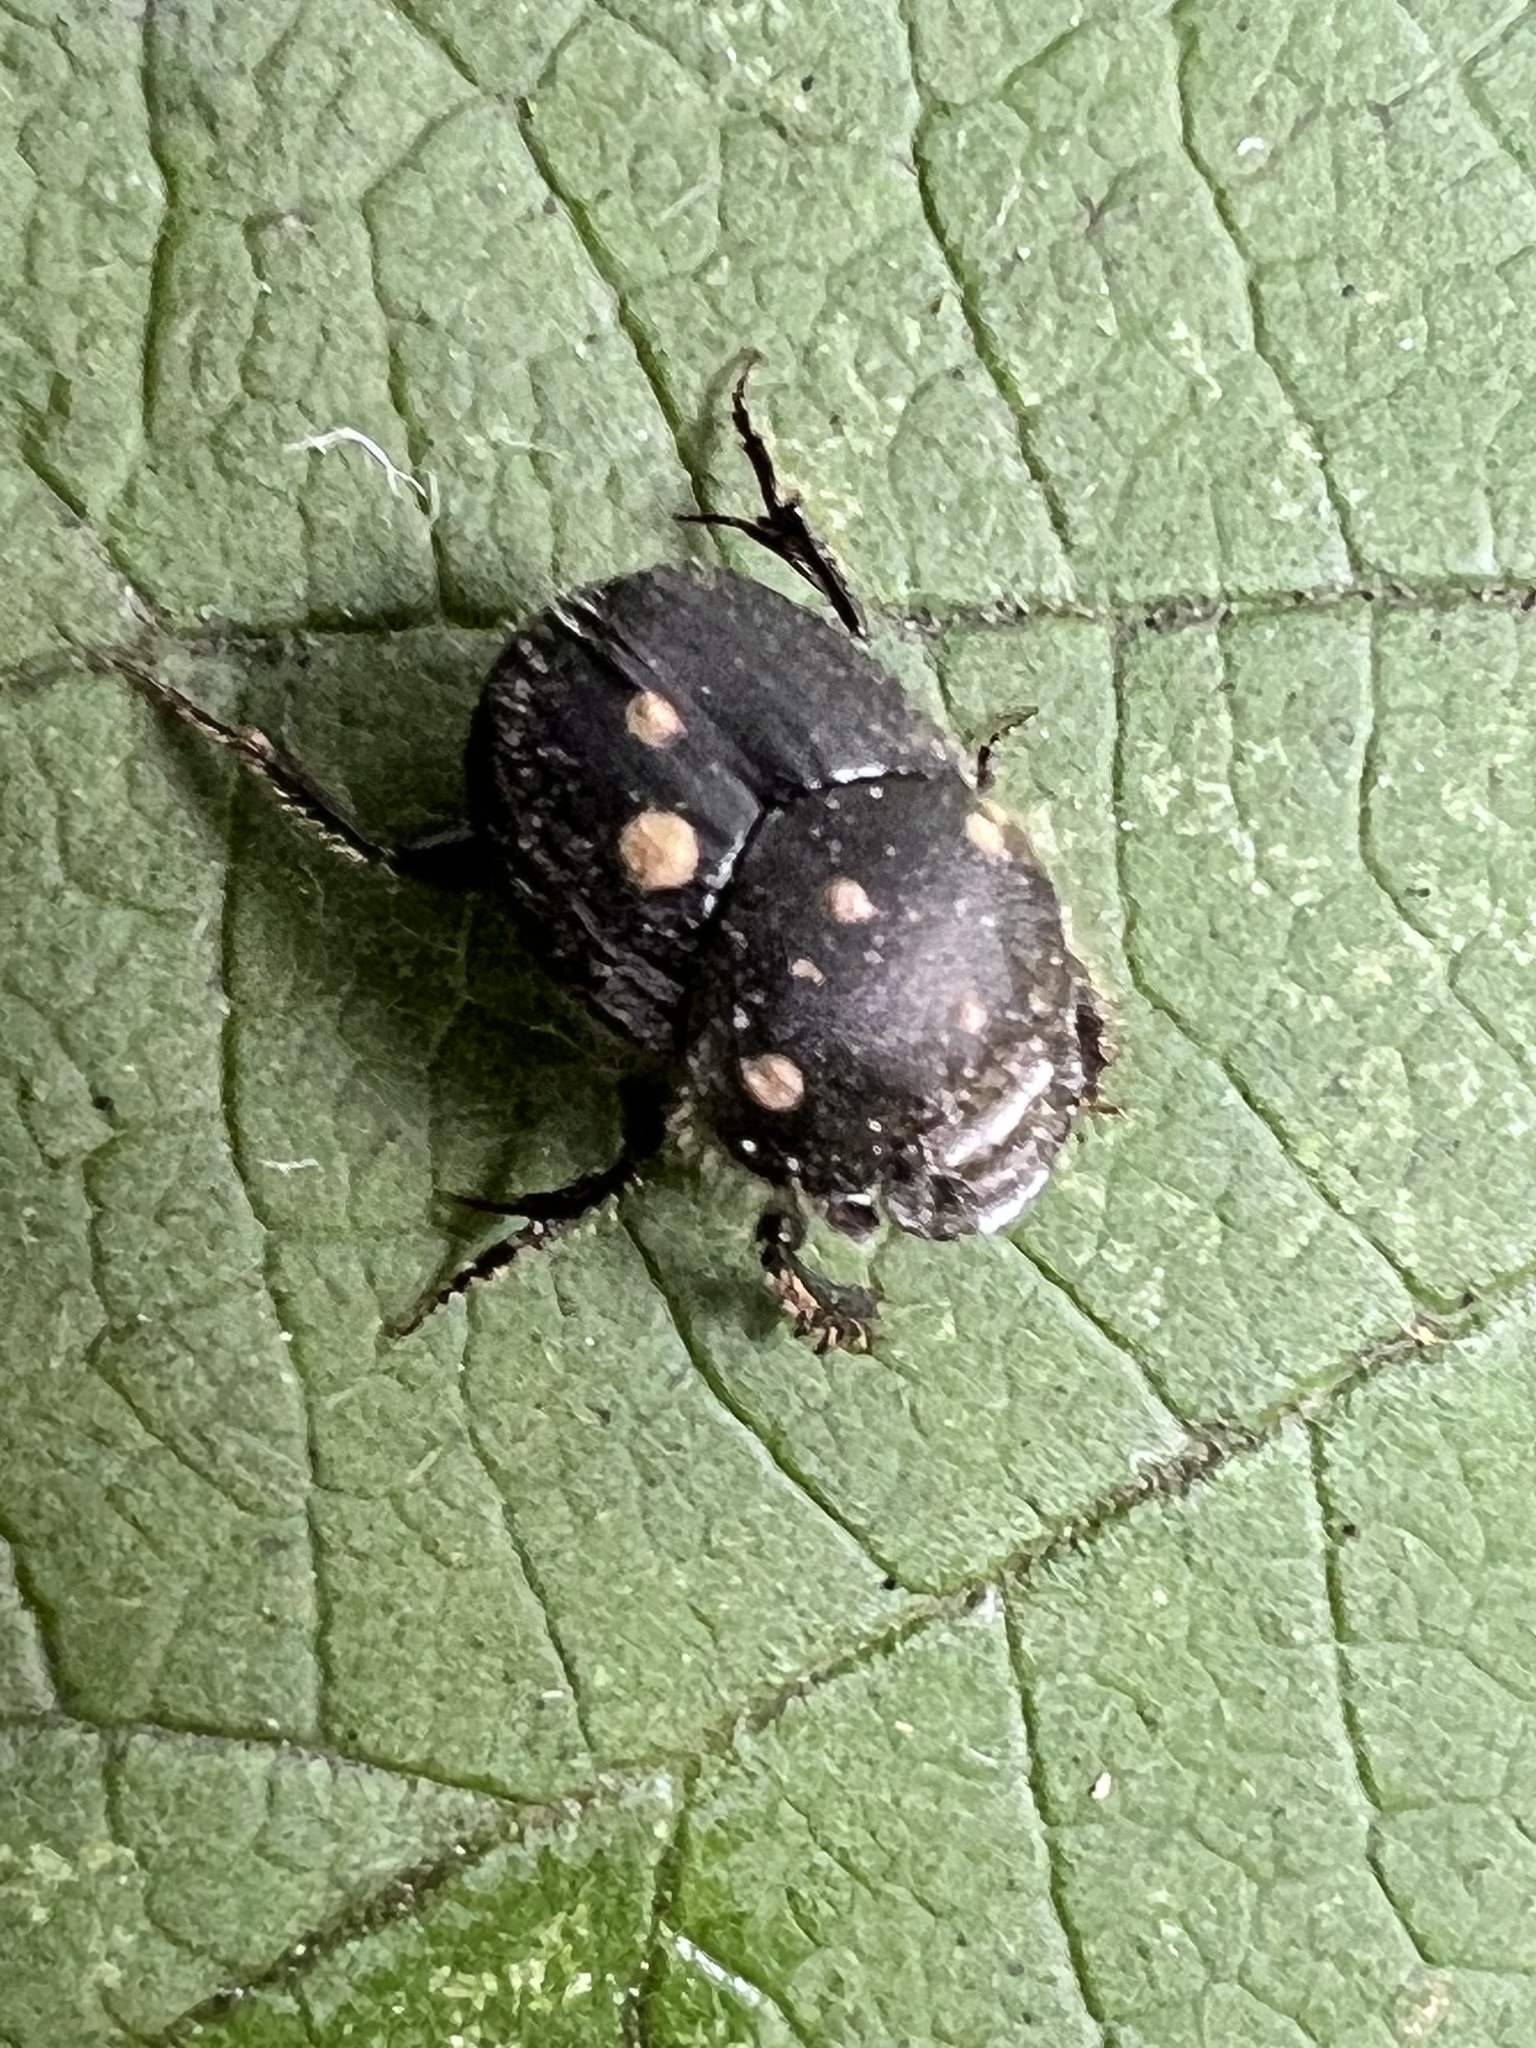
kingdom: Animalia
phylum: Arthropoda
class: Insecta
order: Coleoptera
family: Scarabaeidae
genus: Onthophagus
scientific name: Onthophagus hecate
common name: Scooped scarab
